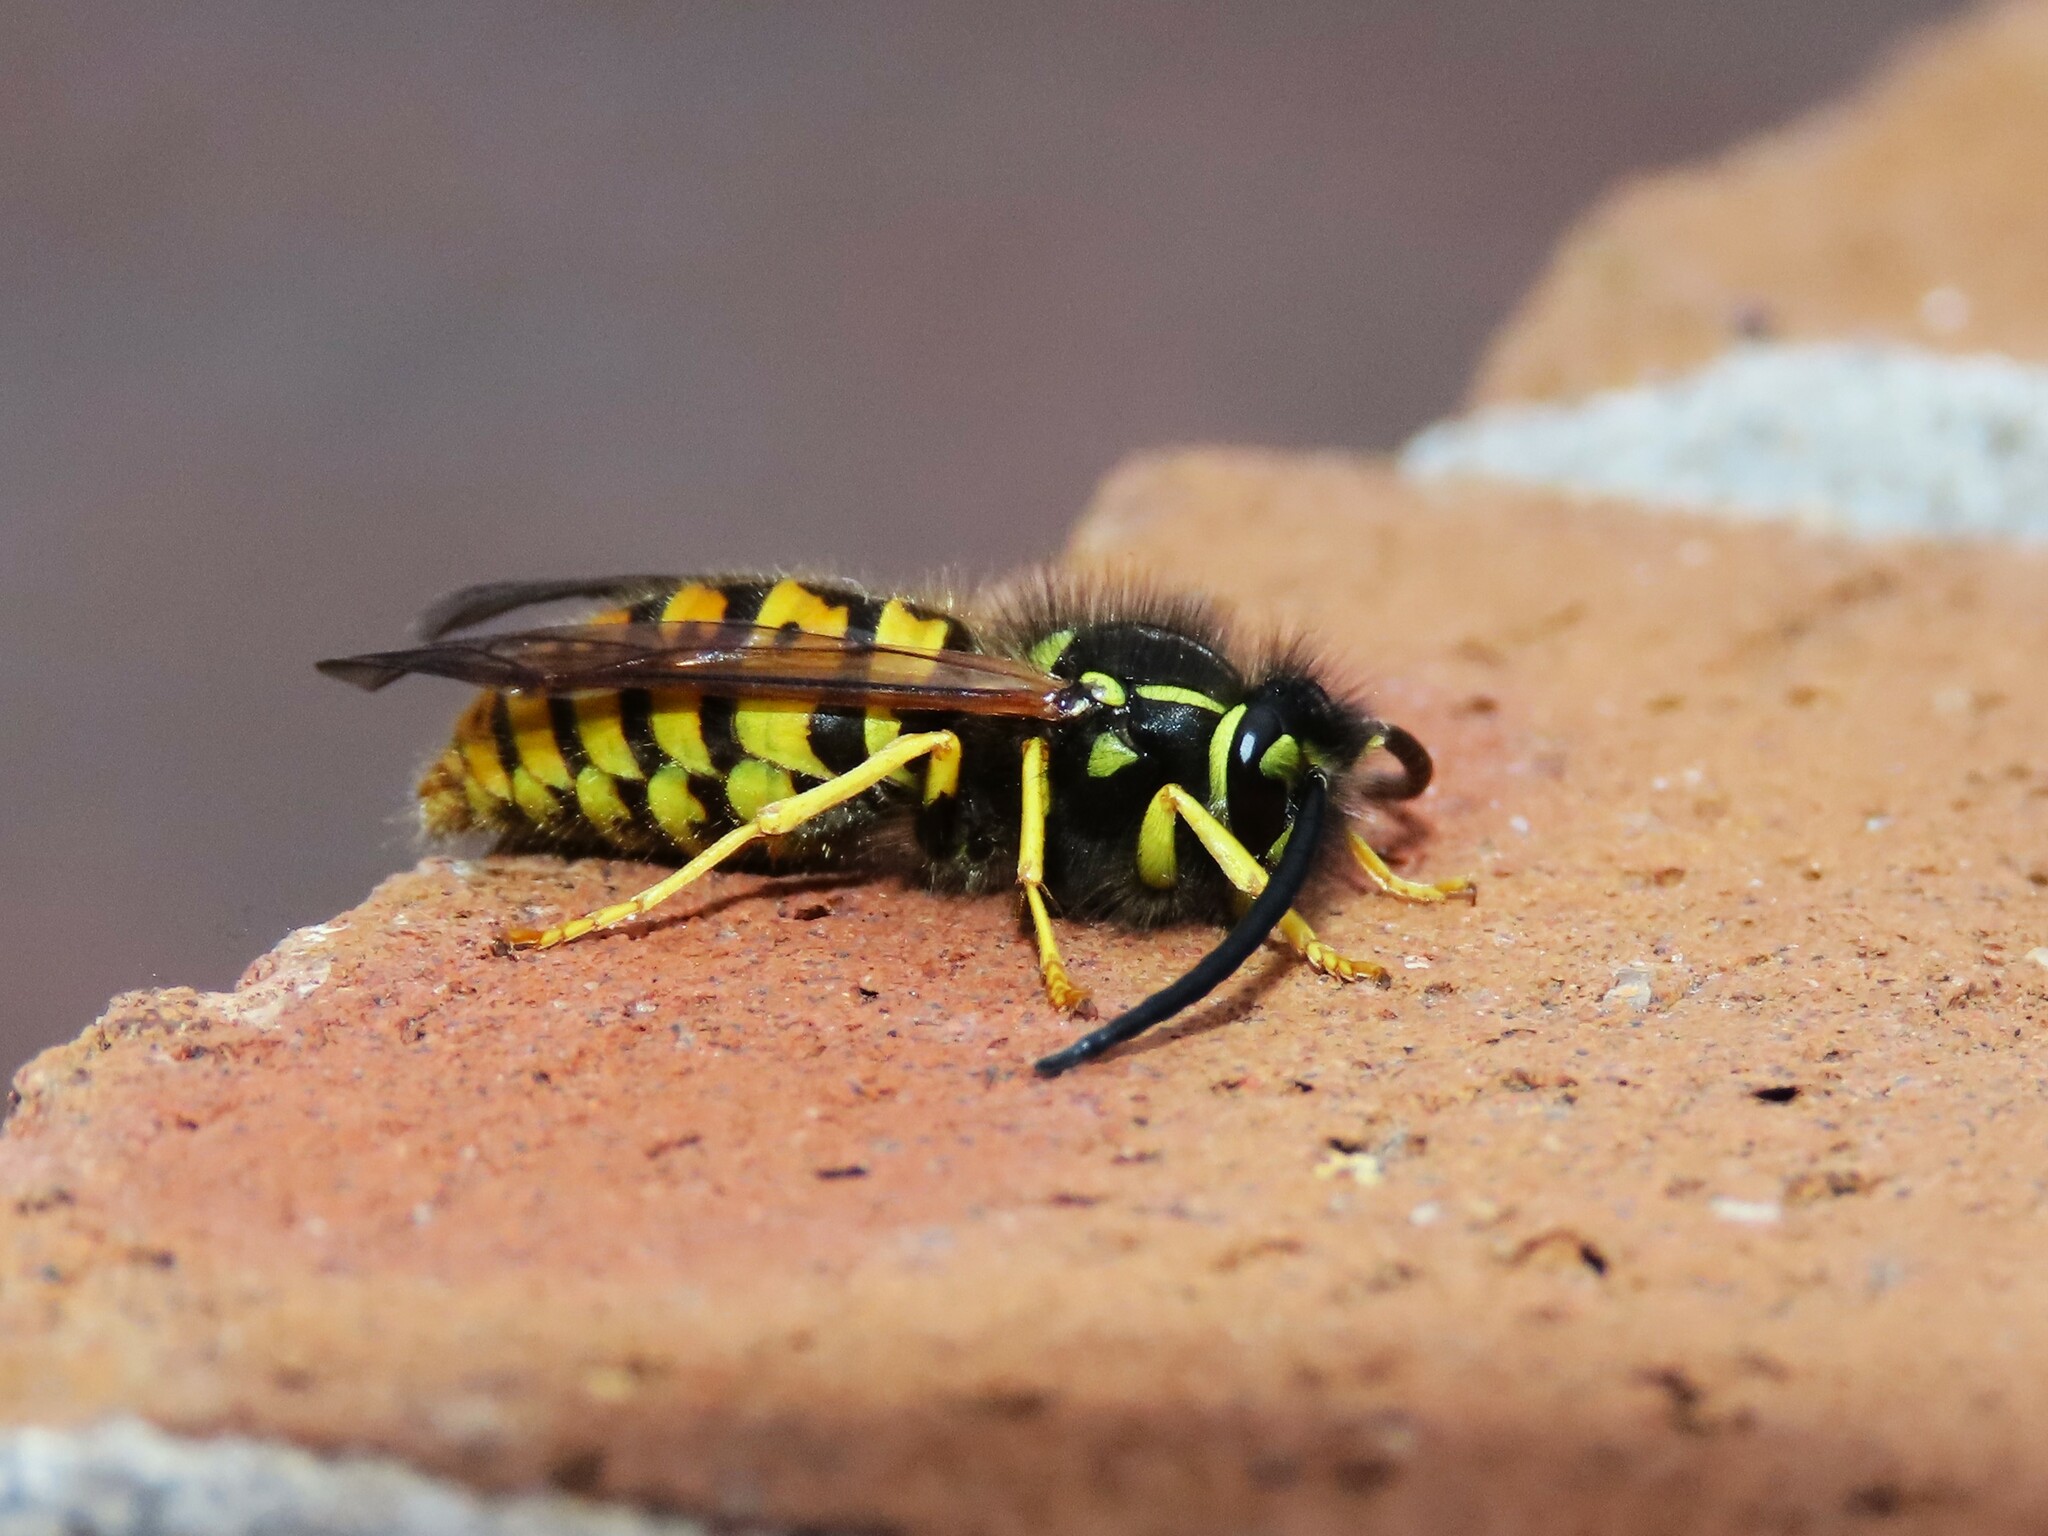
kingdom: Animalia
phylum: Arthropoda
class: Insecta
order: Hymenoptera
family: Vespidae
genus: Vespula
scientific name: Vespula germanica
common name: German wasp
